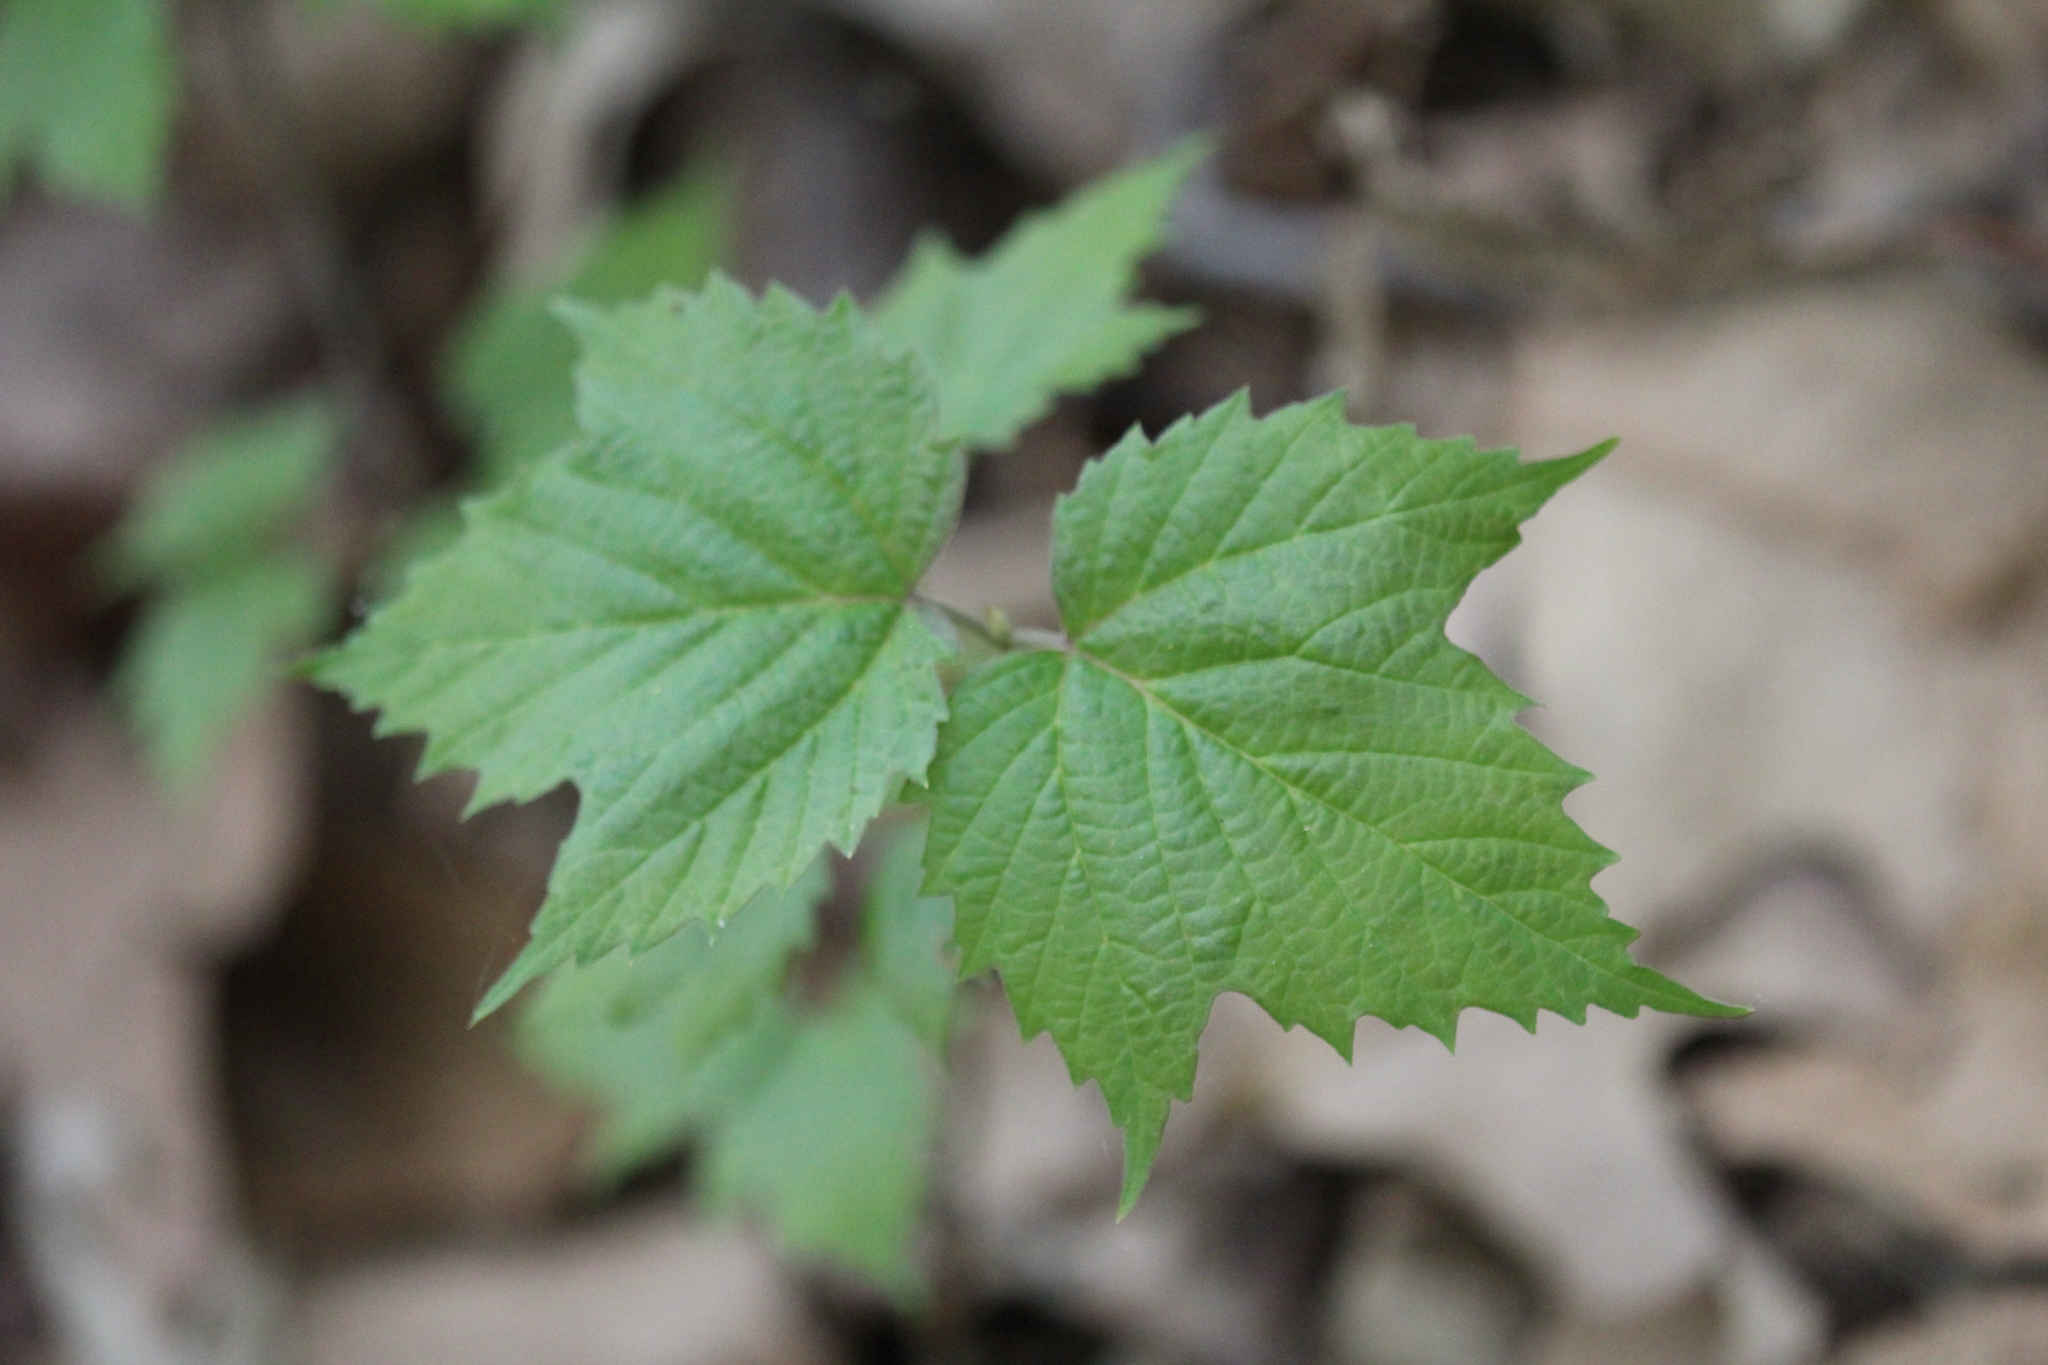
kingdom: Plantae
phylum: Tracheophyta
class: Magnoliopsida
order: Dipsacales
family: Viburnaceae
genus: Viburnum
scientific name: Viburnum acerifolium
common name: Dockmackie
